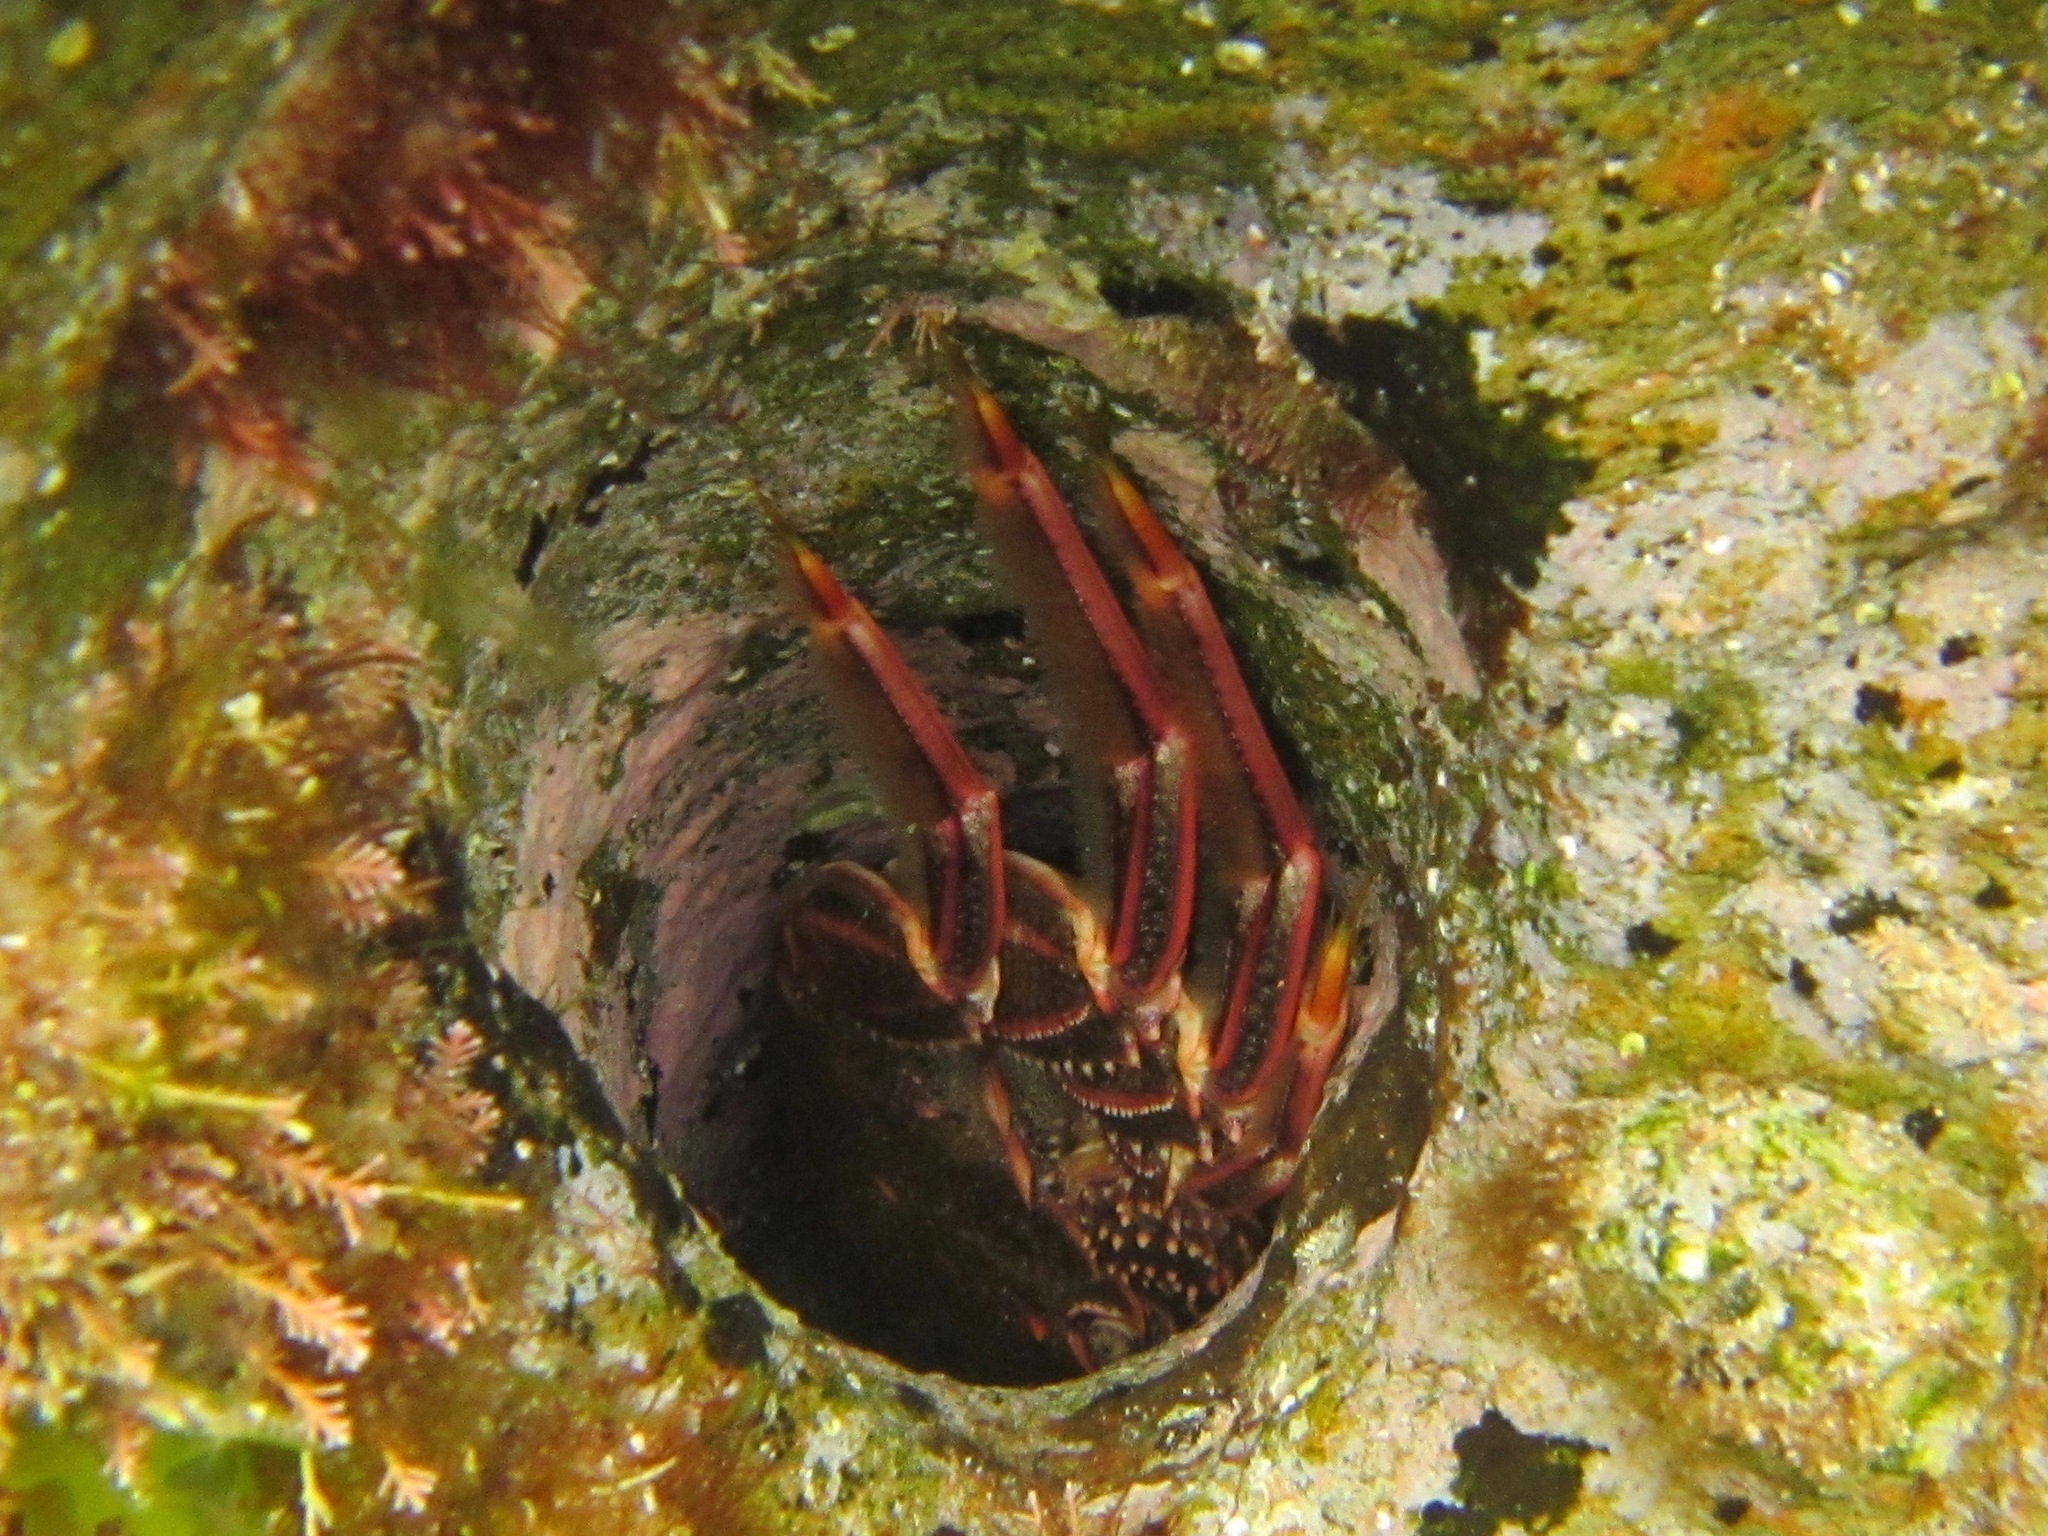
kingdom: Animalia
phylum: Arthropoda
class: Malacostraca
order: Decapoda
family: Plagusiidae
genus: Guinusia
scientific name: Guinusia chabrus
